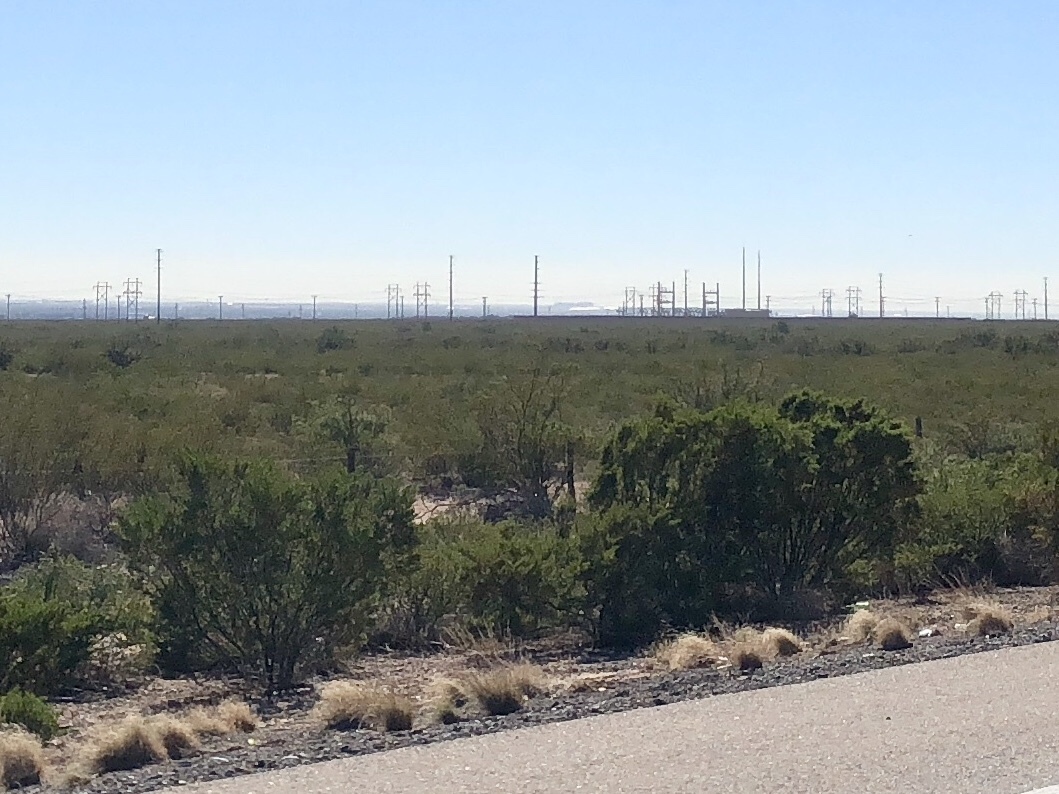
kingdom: Plantae
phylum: Tracheophyta
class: Magnoliopsida
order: Zygophyllales
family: Zygophyllaceae
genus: Larrea
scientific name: Larrea tridentata
